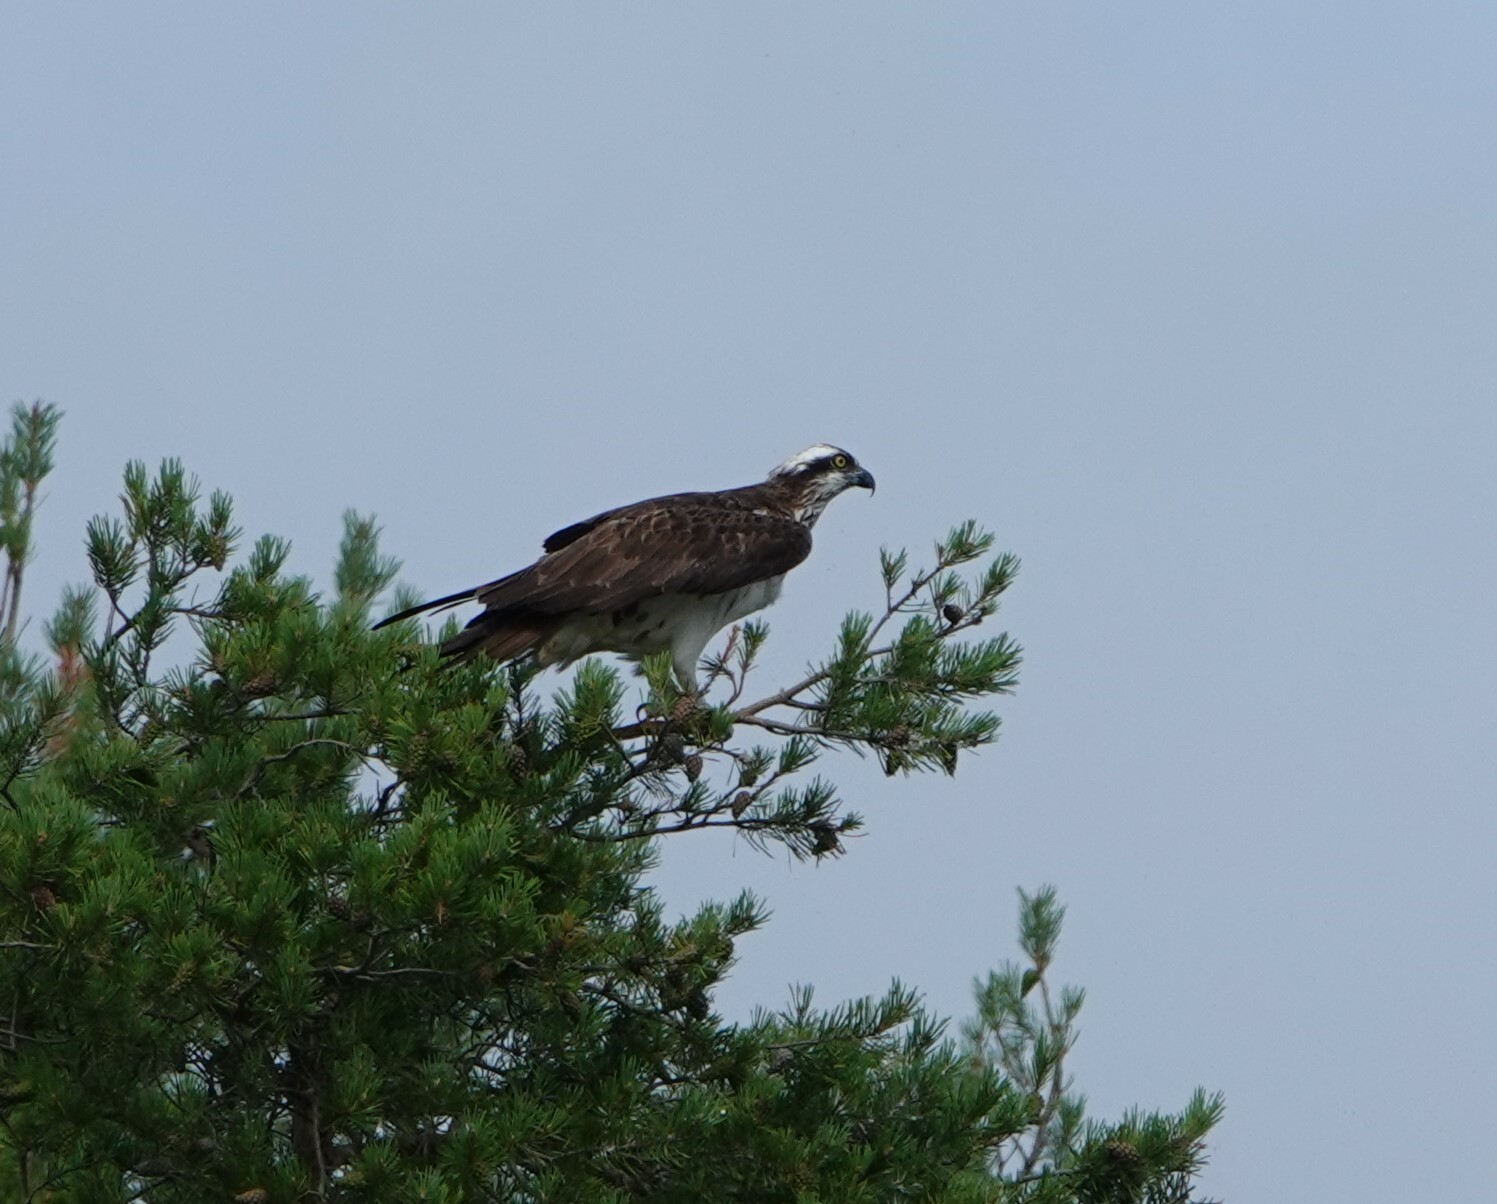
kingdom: Animalia
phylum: Chordata
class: Aves
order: Accipitriformes
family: Pandionidae
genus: Pandion
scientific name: Pandion haliaetus
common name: Osprey
